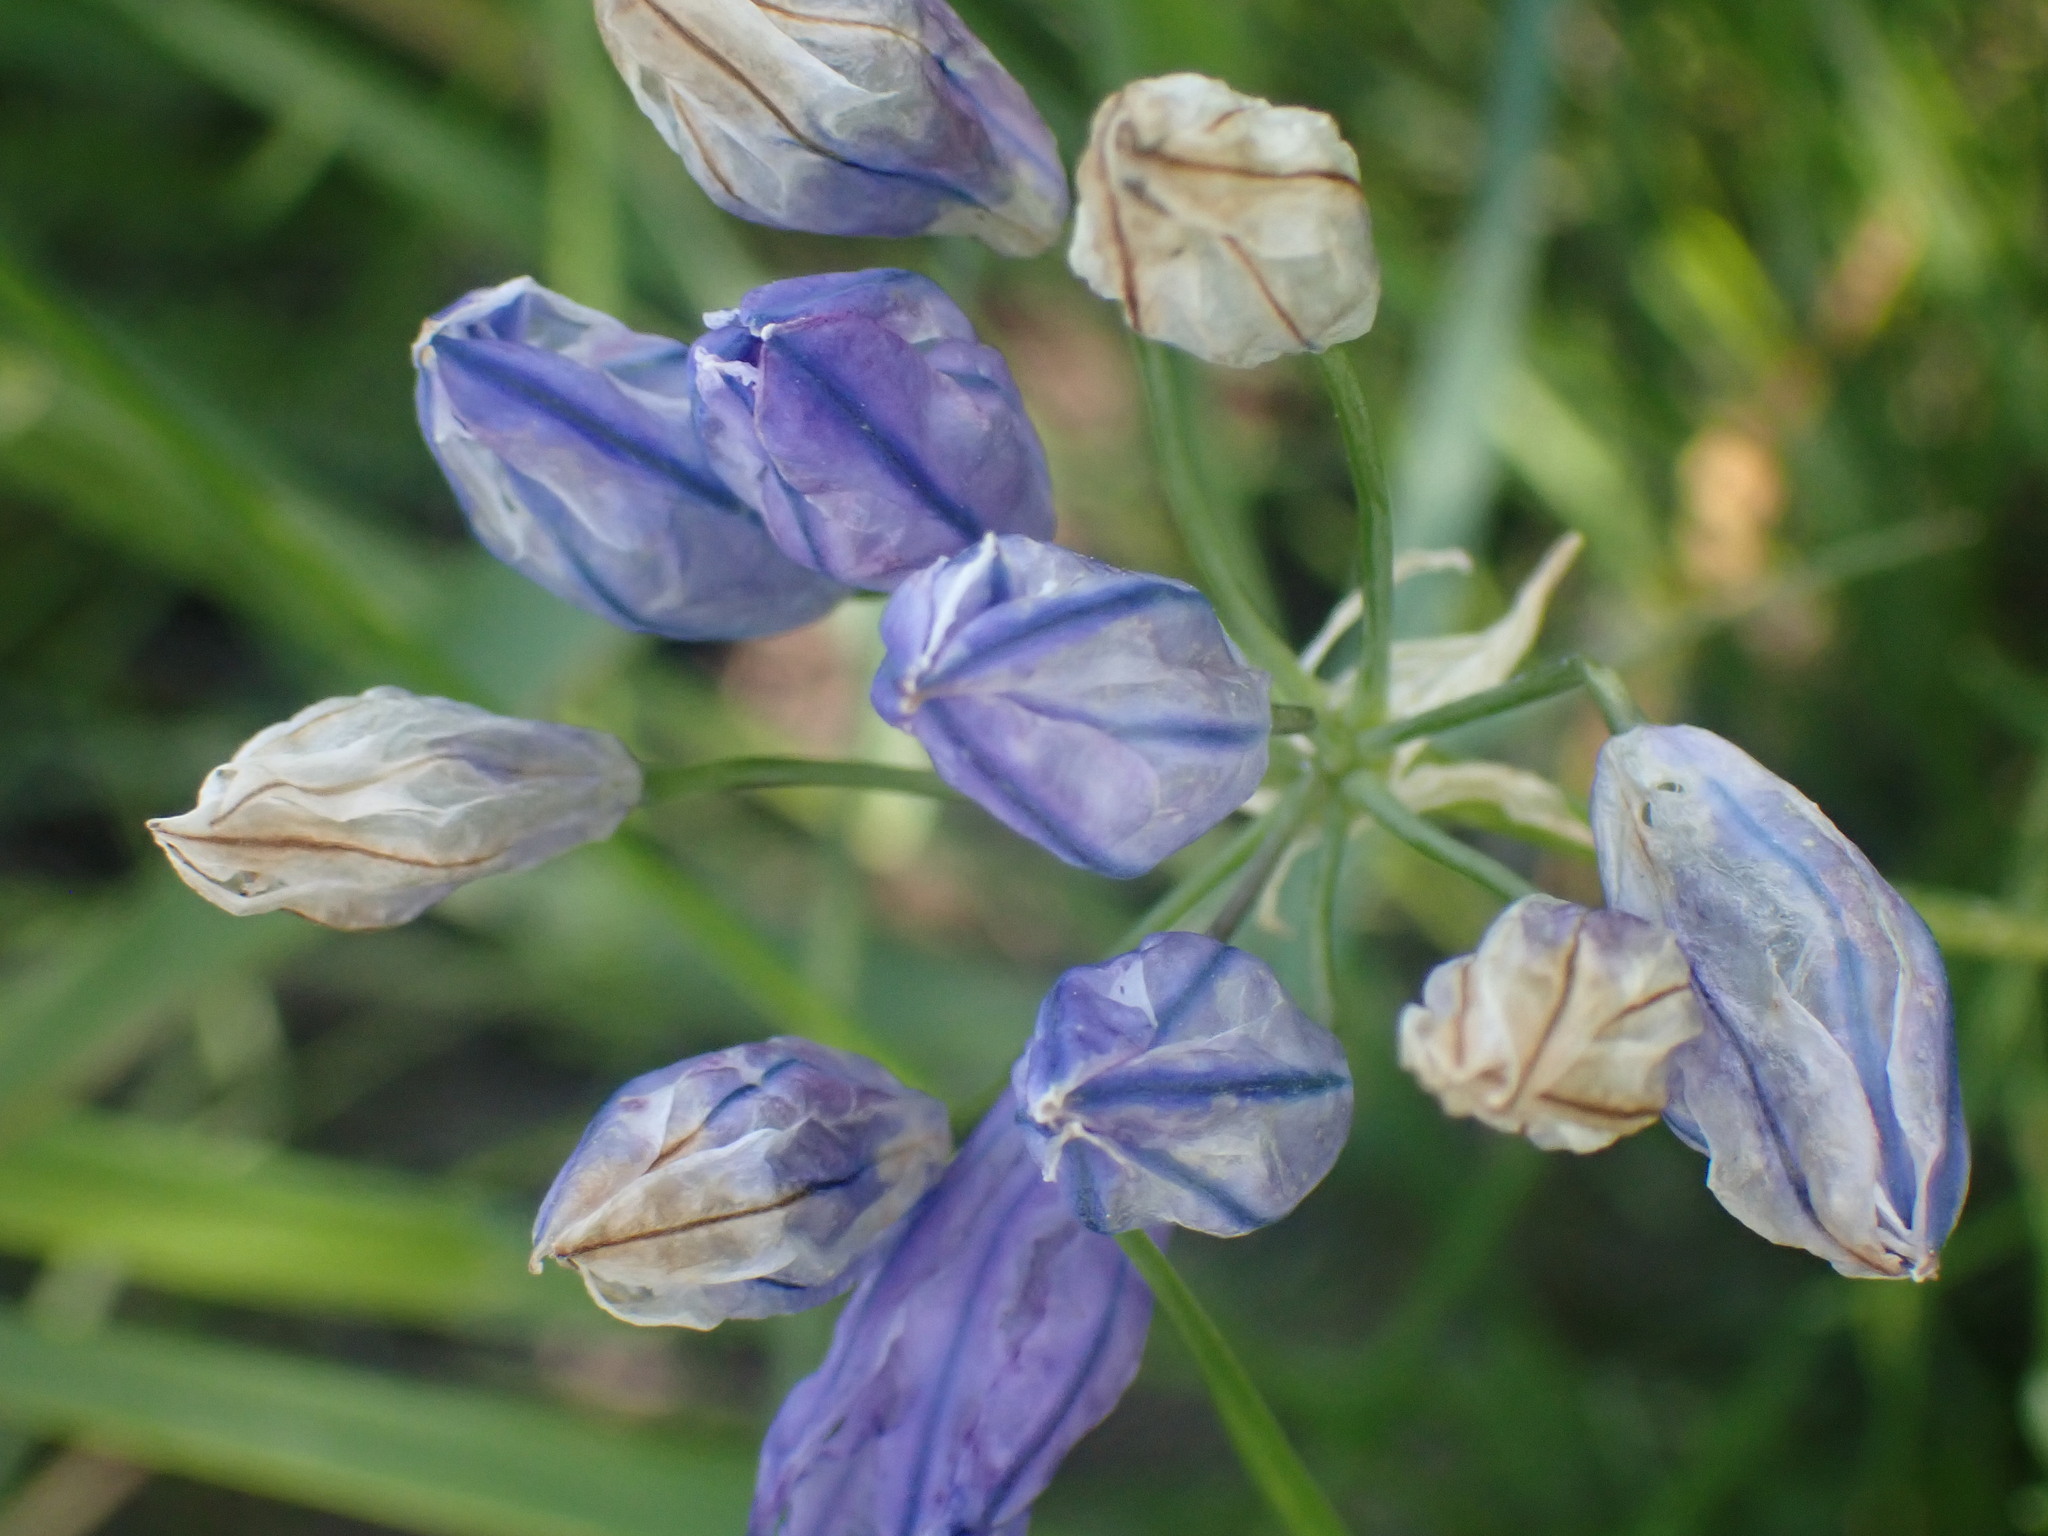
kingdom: Plantae
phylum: Tracheophyta
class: Liliopsida
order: Asparagales
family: Asparagaceae
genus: Triteleia
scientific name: Triteleia grandiflora
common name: Wild hyacinth
